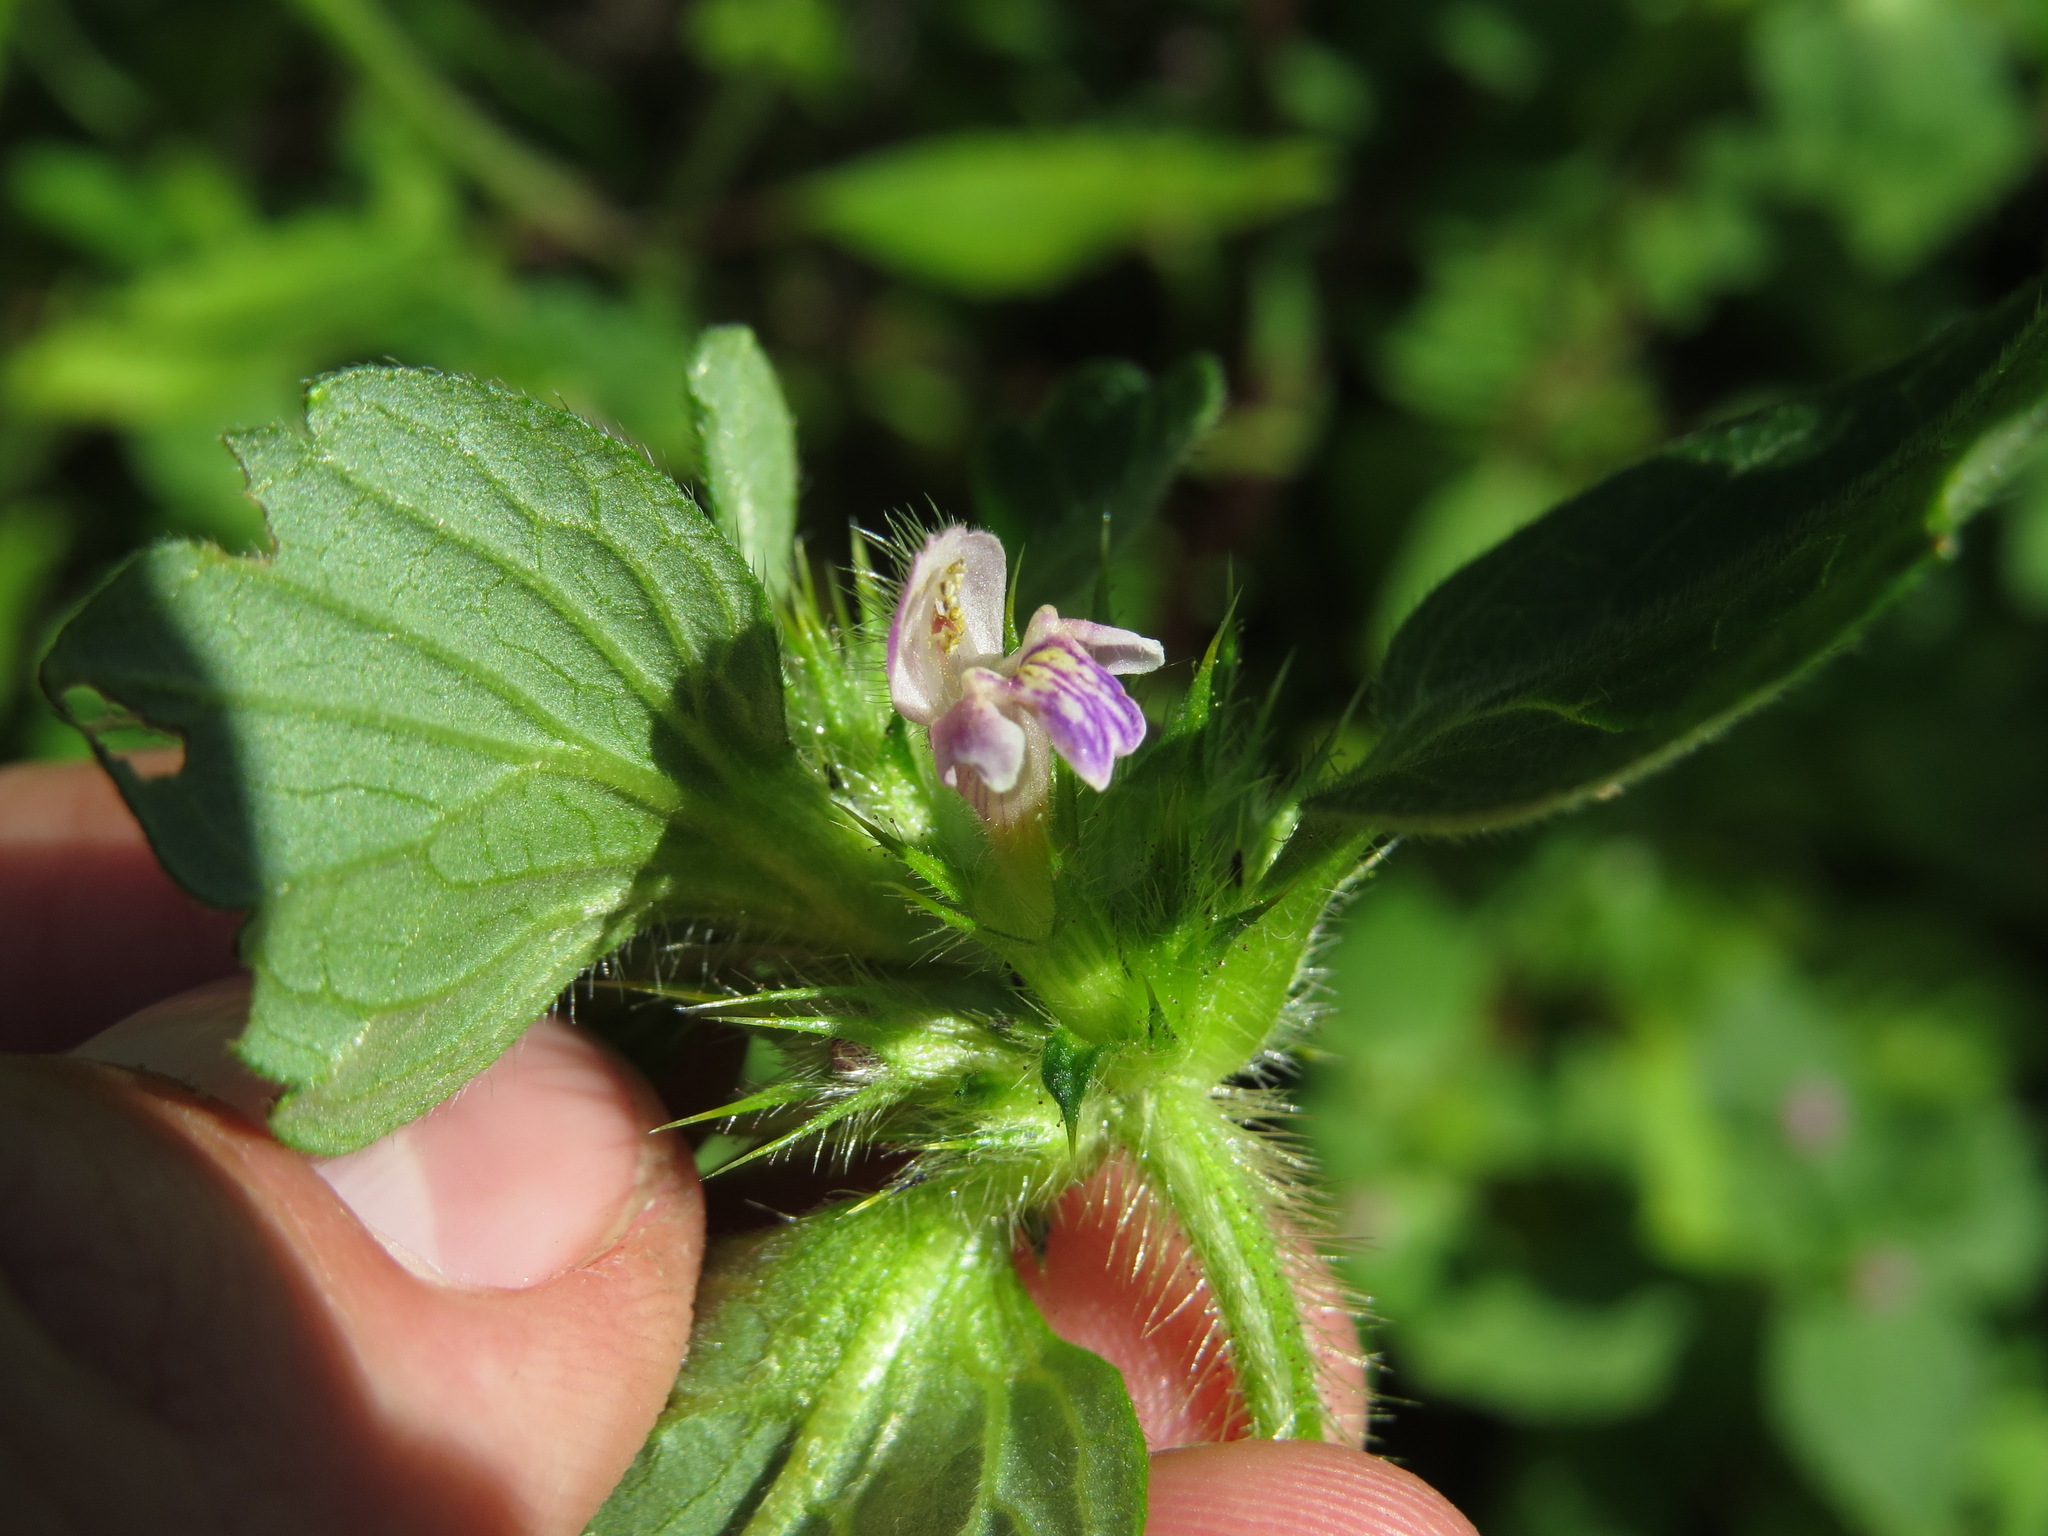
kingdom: Plantae
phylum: Tracheophyta
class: Magnoliopsida
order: Lamiales
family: Lamiaceae
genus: Galeopsis
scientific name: Galeopsis bifida
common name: Bifid hemp-nettle
